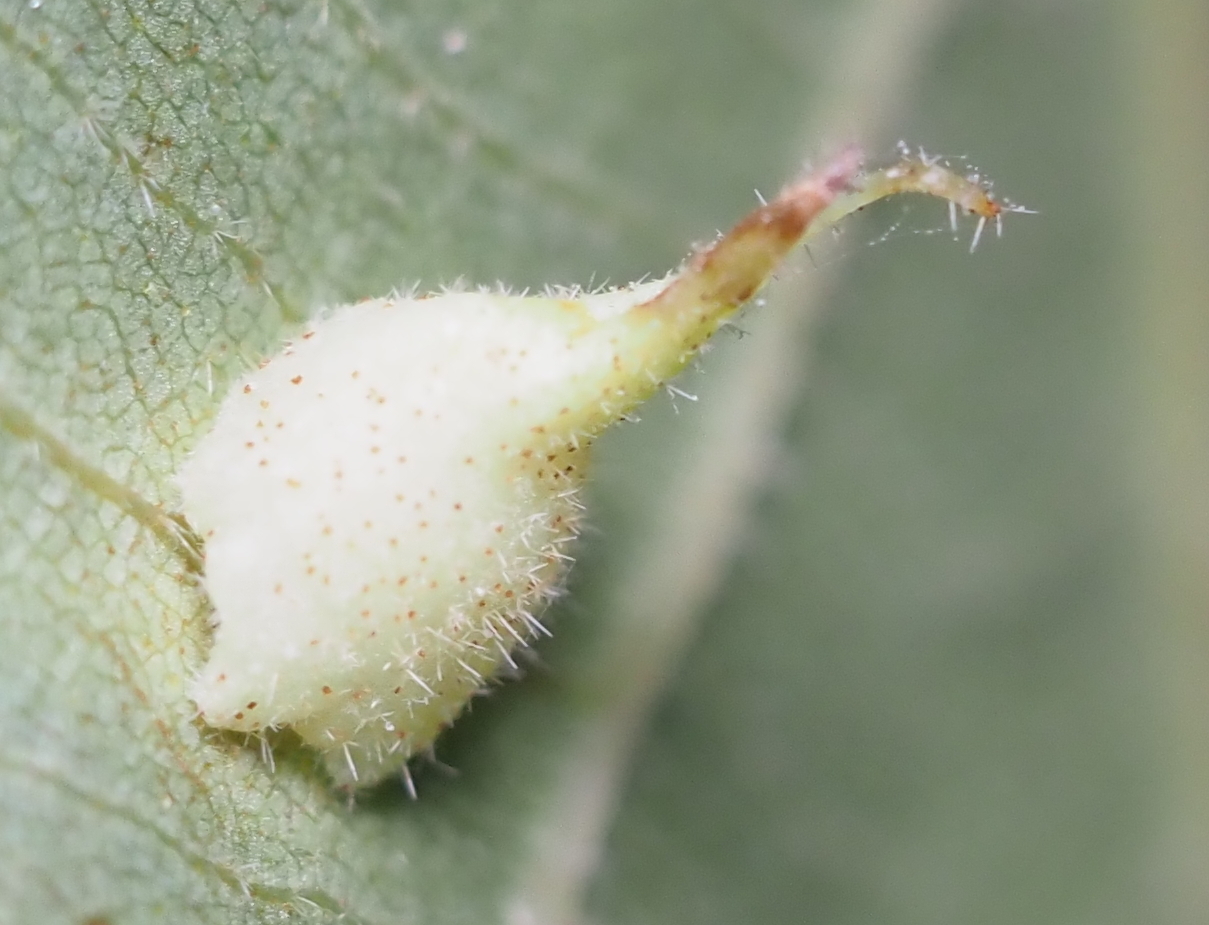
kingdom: Animalia
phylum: Arthropoda
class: Insecta
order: Diptera
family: Cecidomyiidae
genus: Caryomyia
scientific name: Caryomyia inclinata
